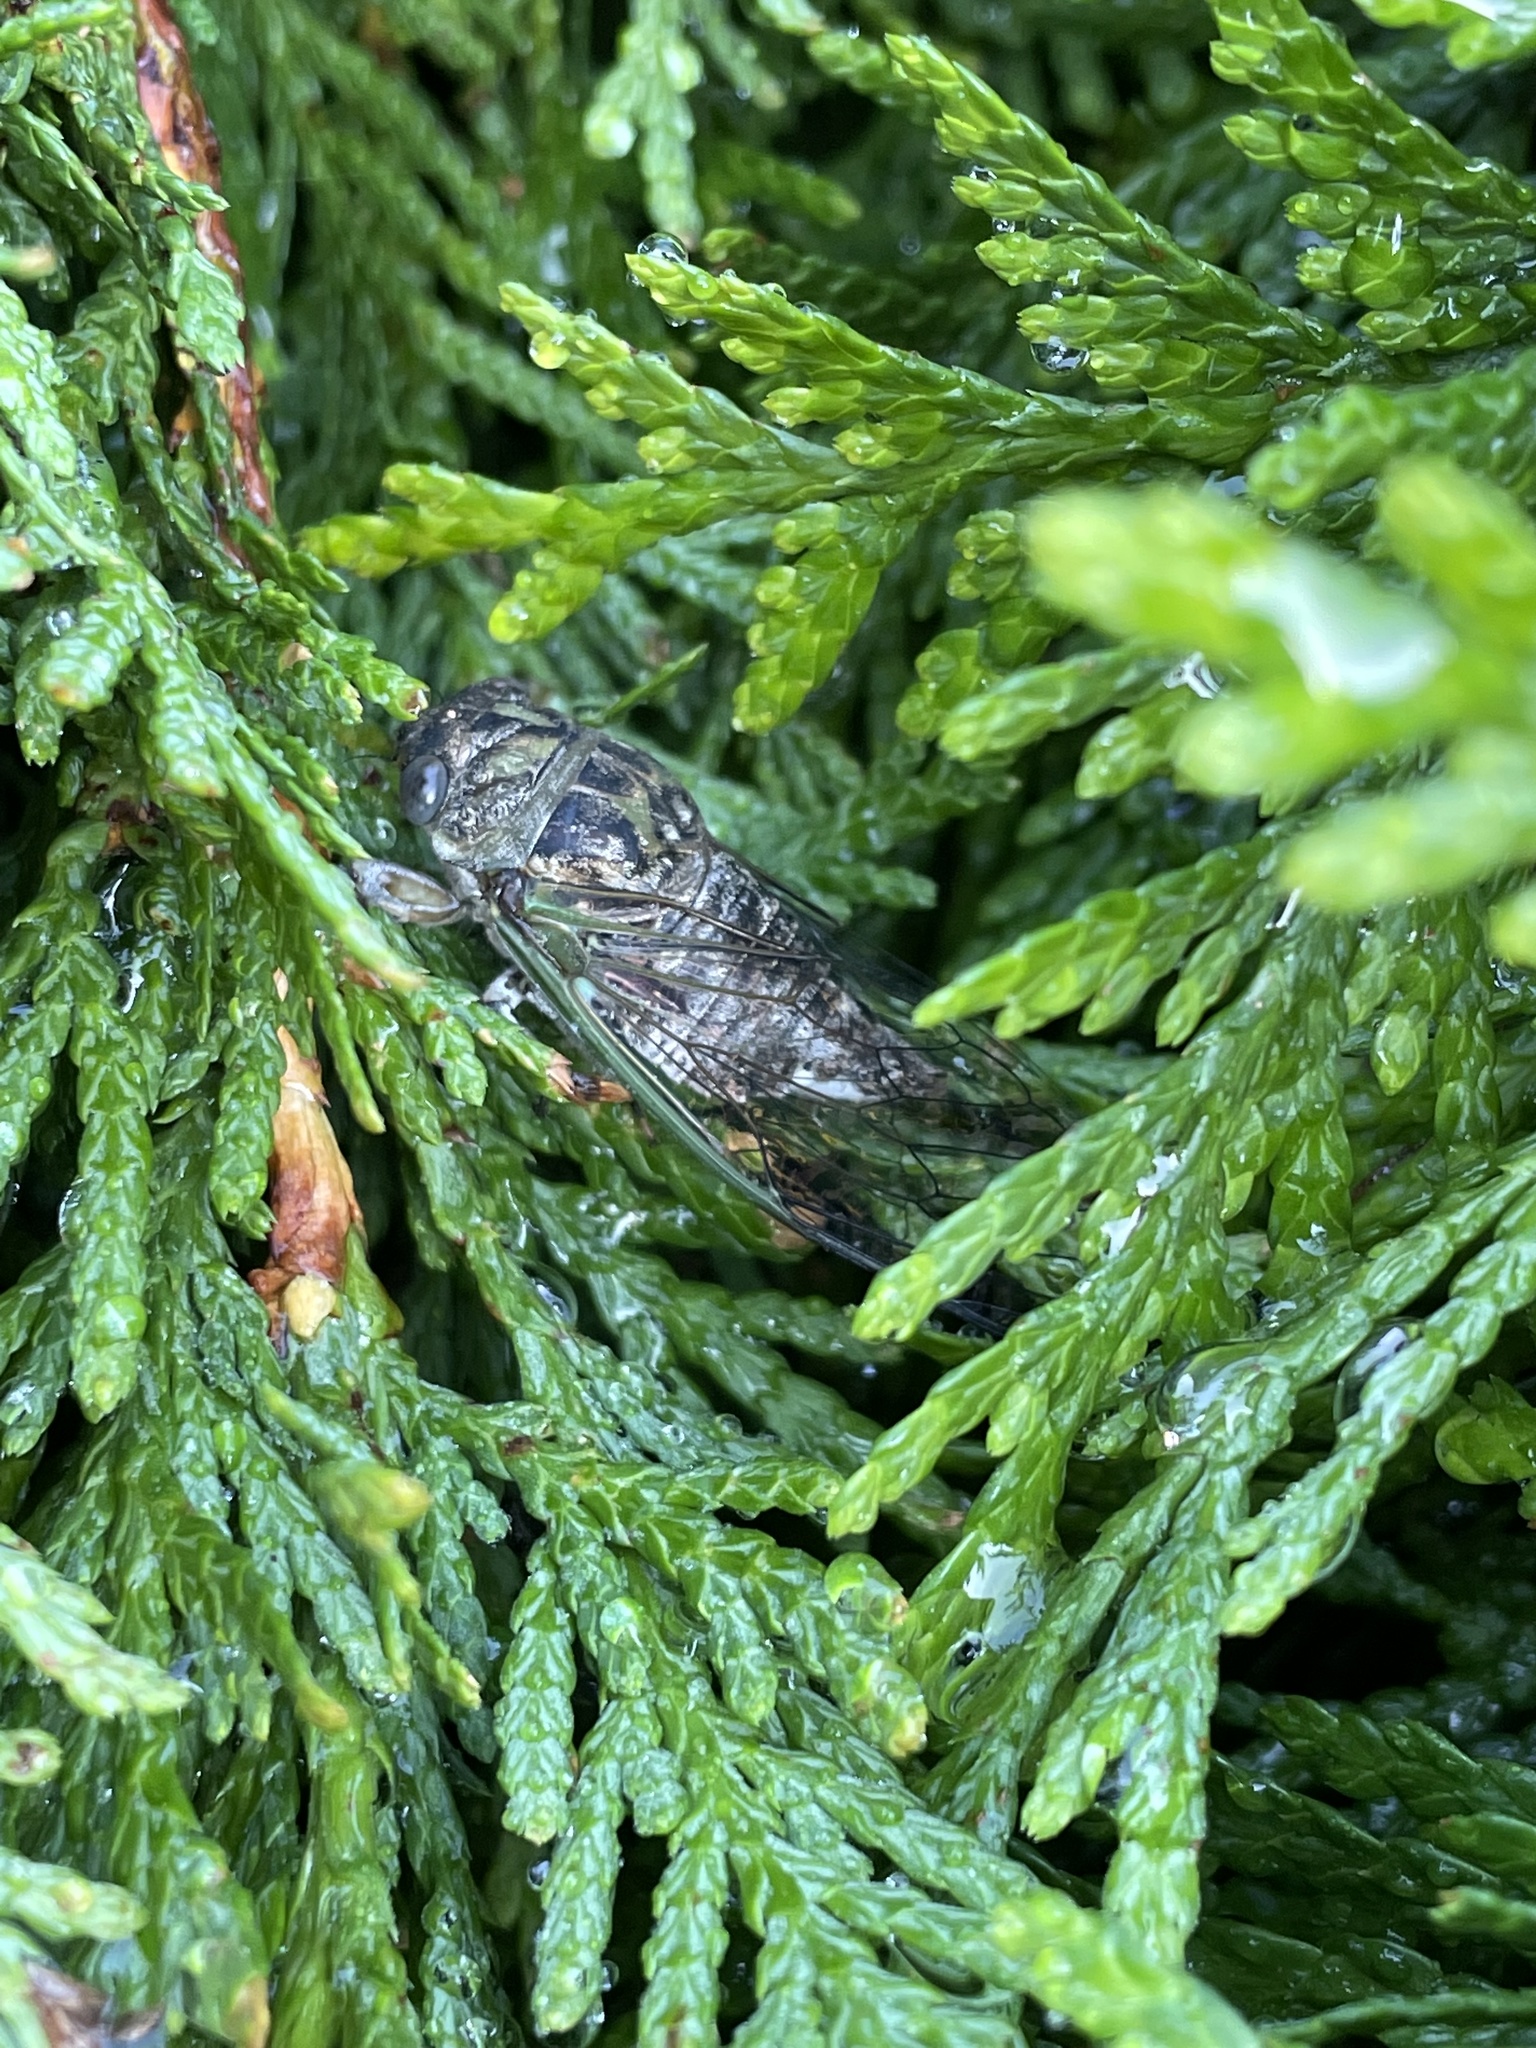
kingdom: Animalia
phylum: Arthropoda
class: Insecta
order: Hemiptera
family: Cicadidae
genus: Neotibicen
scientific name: Neotibicen canicularis
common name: God-day cicada
